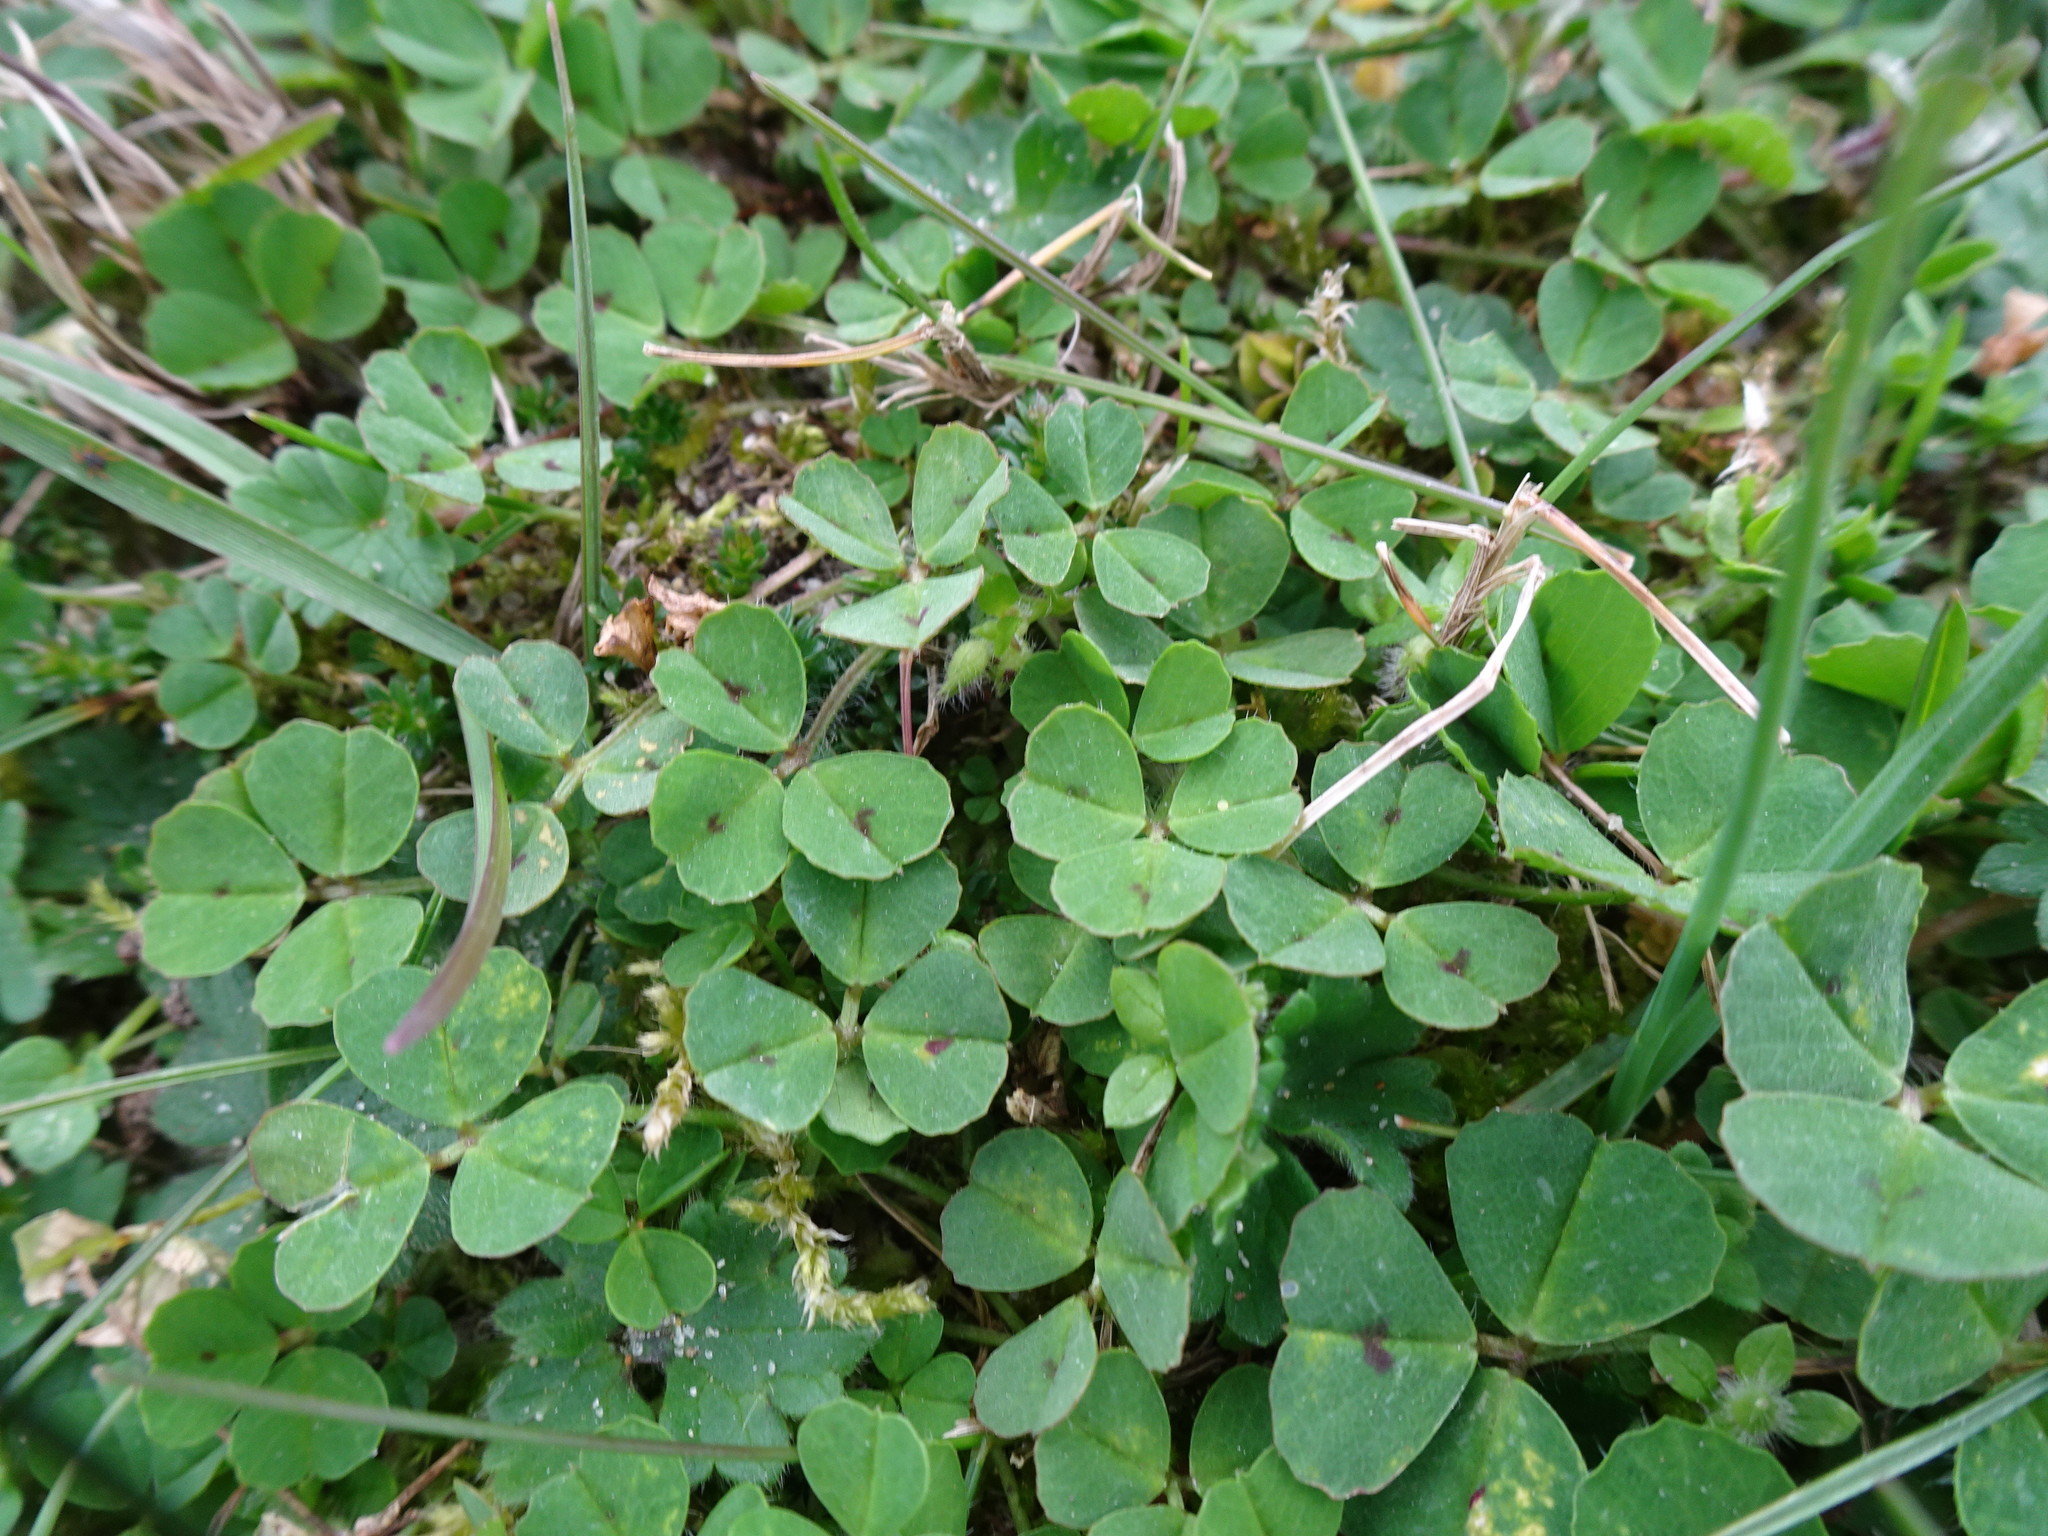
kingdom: Plantae
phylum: Tracheophyta
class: Magnoliopsida
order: Fabales
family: Fabaceae
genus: Medicago
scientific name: Medicago arabica
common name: Spotted medick
